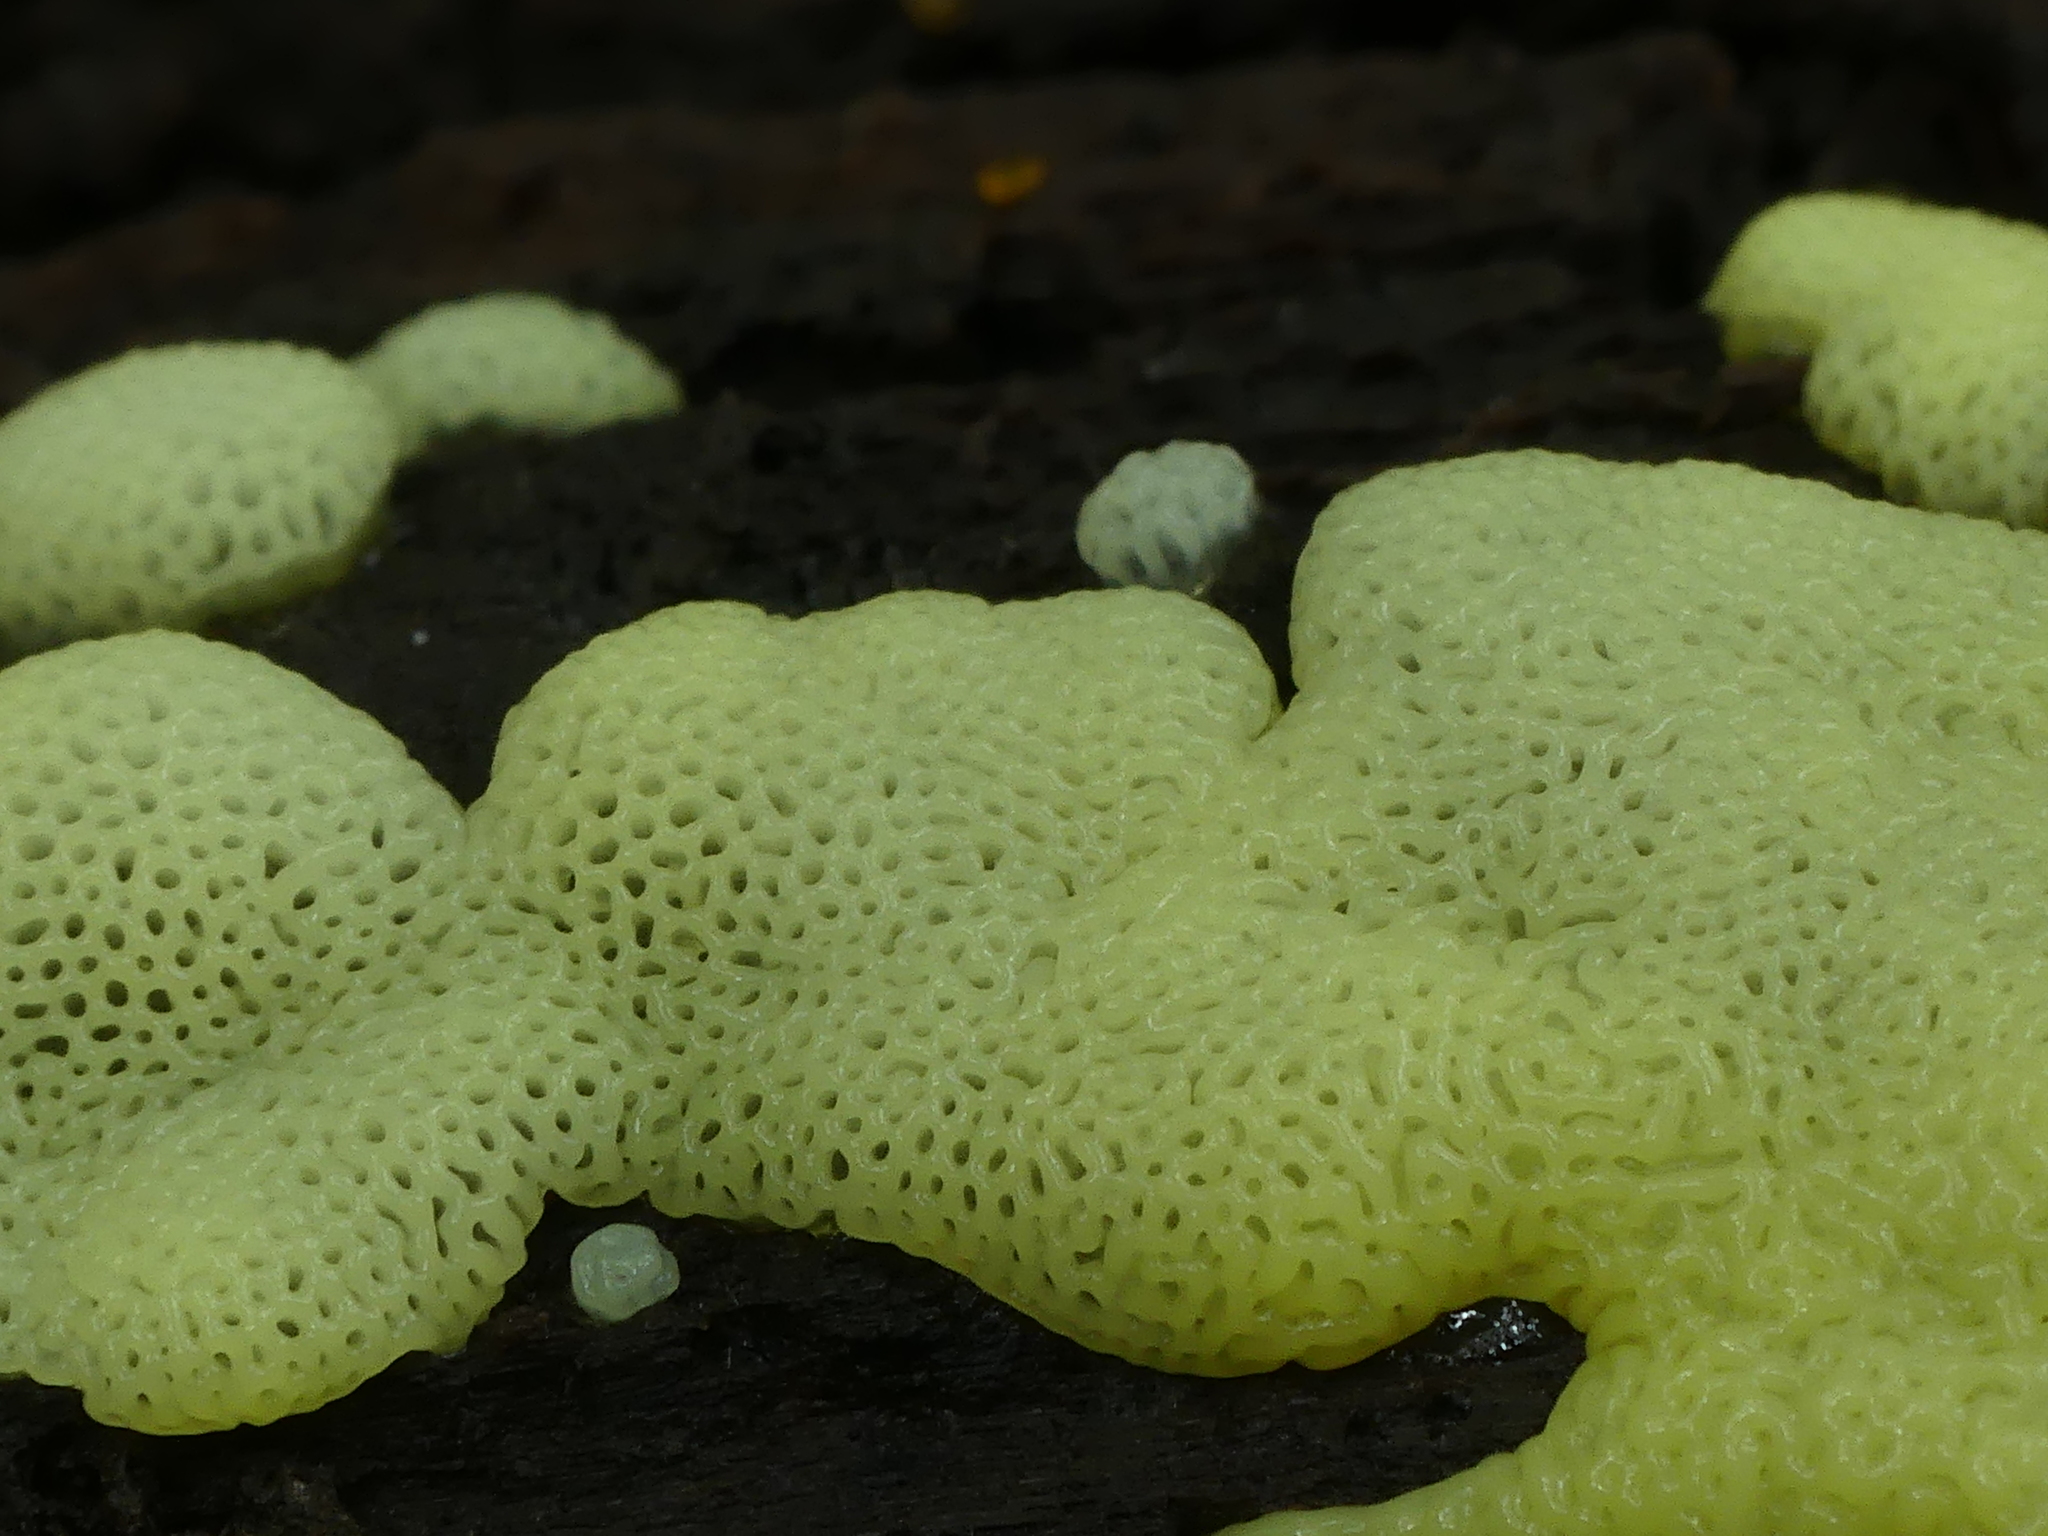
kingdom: Protozoa
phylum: Mycetozoa
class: Protosteliomycetes
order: Ceratiomyxales
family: Ceratiomyxaceae
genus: Ceratiomyxa
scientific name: Ceratiomyxa fruticulosa
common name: Honeycomb coral slime mold
